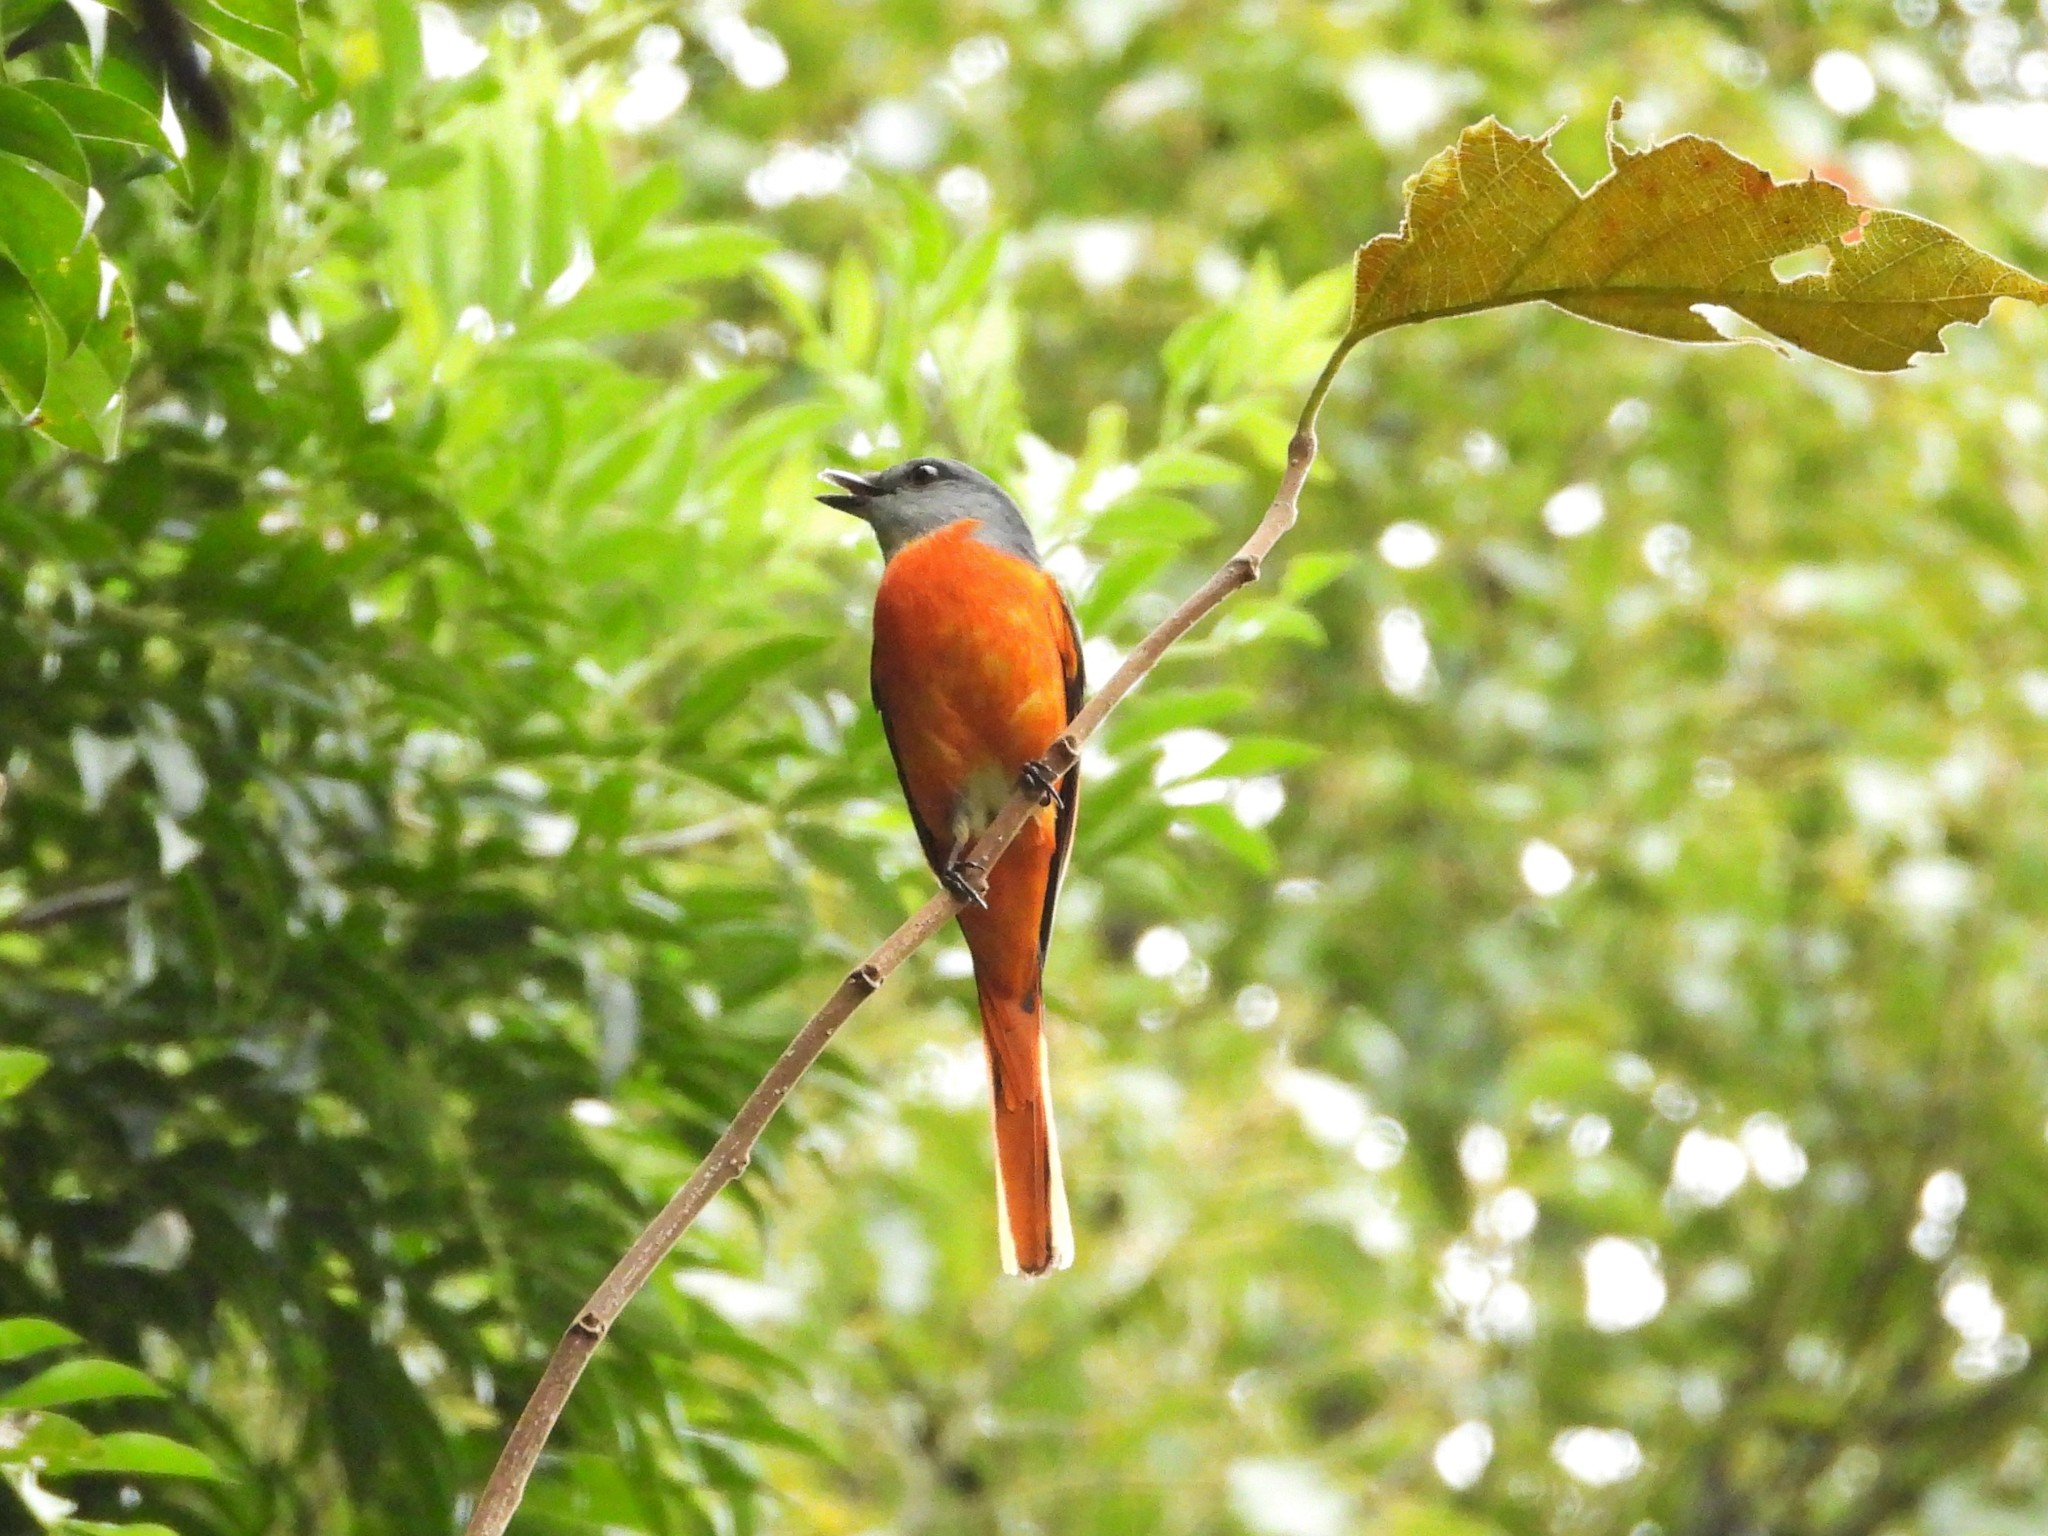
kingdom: Animalia
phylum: Chordata
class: Aves
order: Passeriformes
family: Campephagidae
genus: Pericrocotus
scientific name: Pericrocotus solaris
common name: Grey-chinned minivet
